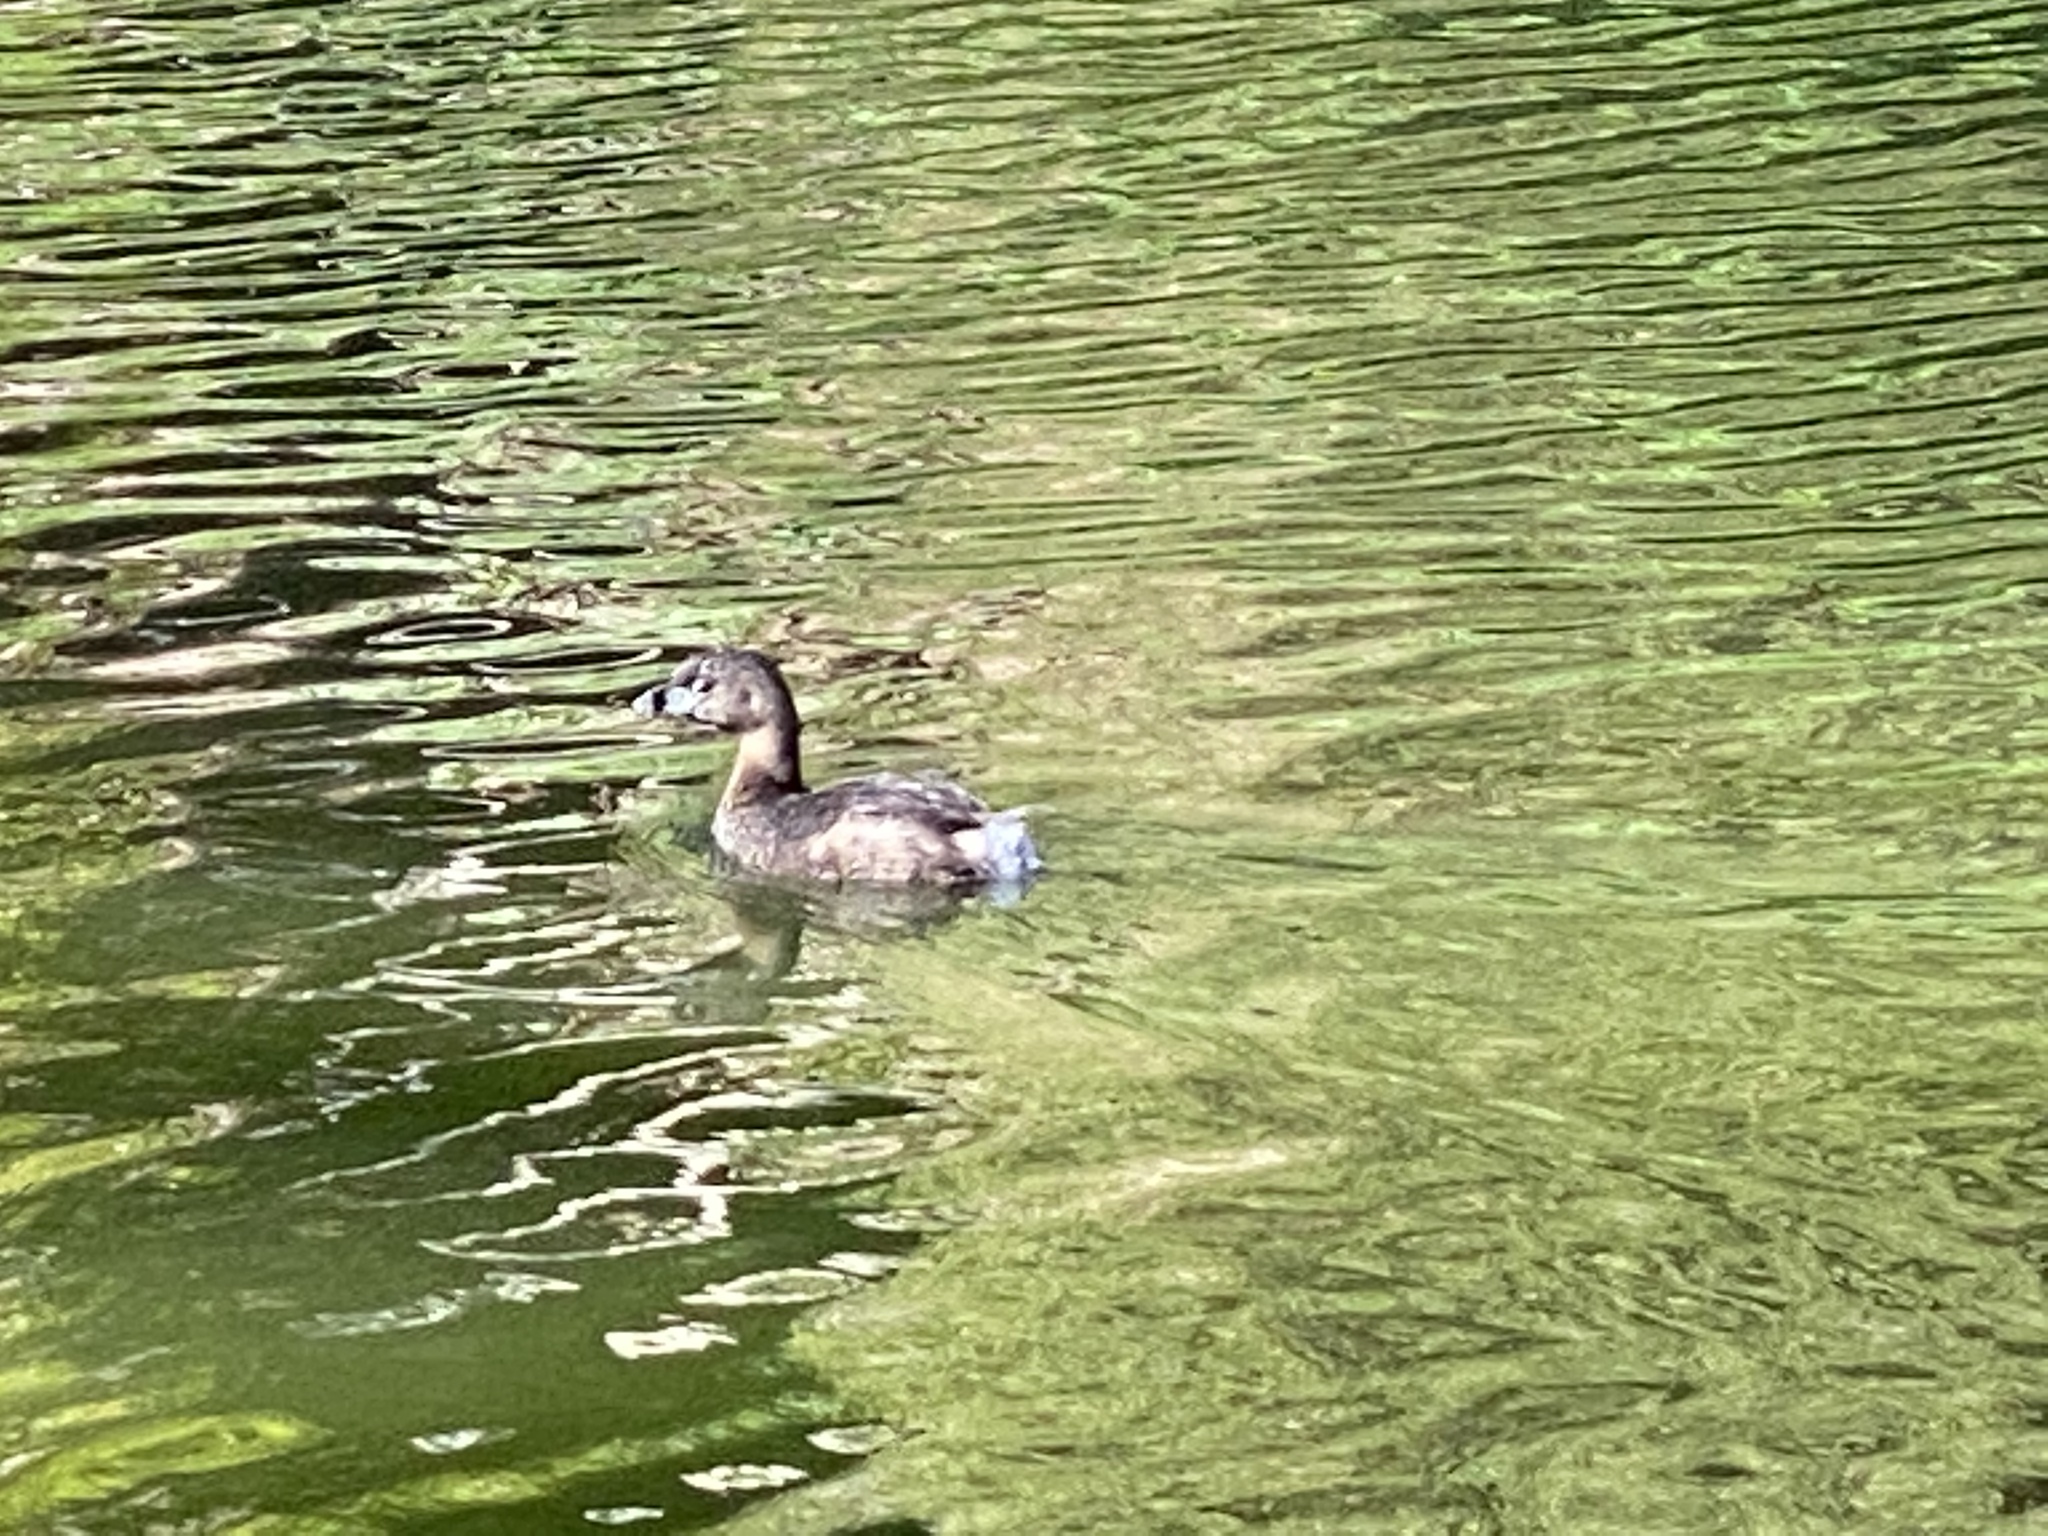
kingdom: Animalia
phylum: Chordata
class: Aves
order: Podicipediformes
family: Podicipedidae
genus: Podilymbus
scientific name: Podilymbus podiceps
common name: Pied-billed grebe
